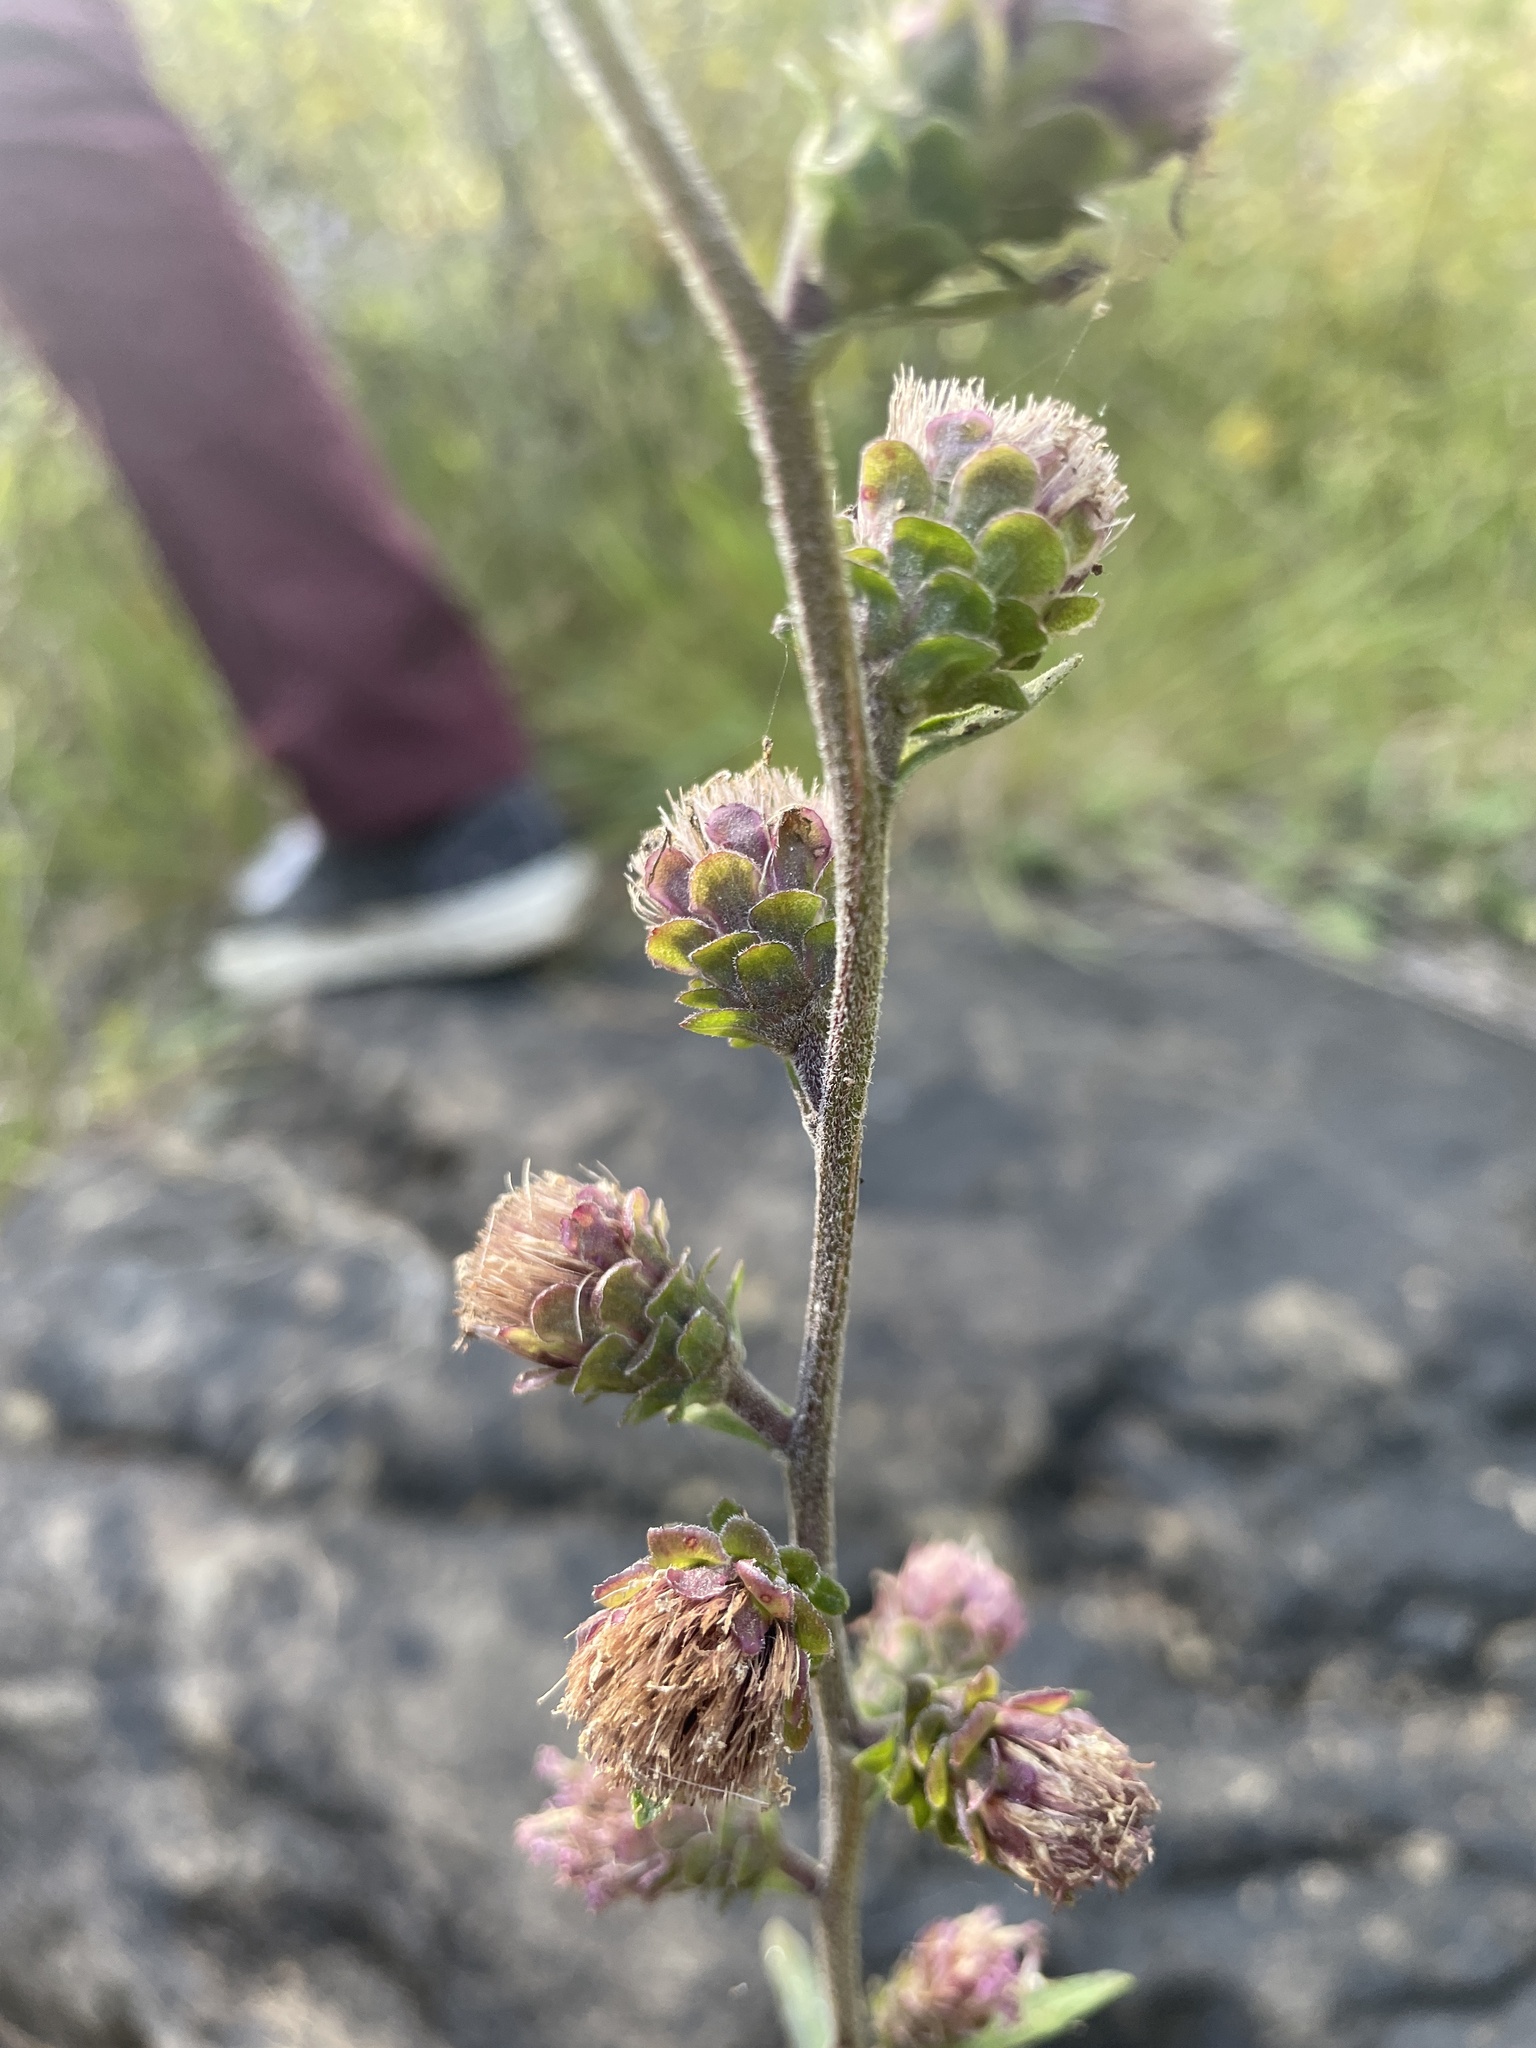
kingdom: Plantae
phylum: Tracheophyta
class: Magnoliopsida
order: Asterales
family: Asteraceae
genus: Liatris
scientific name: Liatris scariosa
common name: Northern gayfeather
